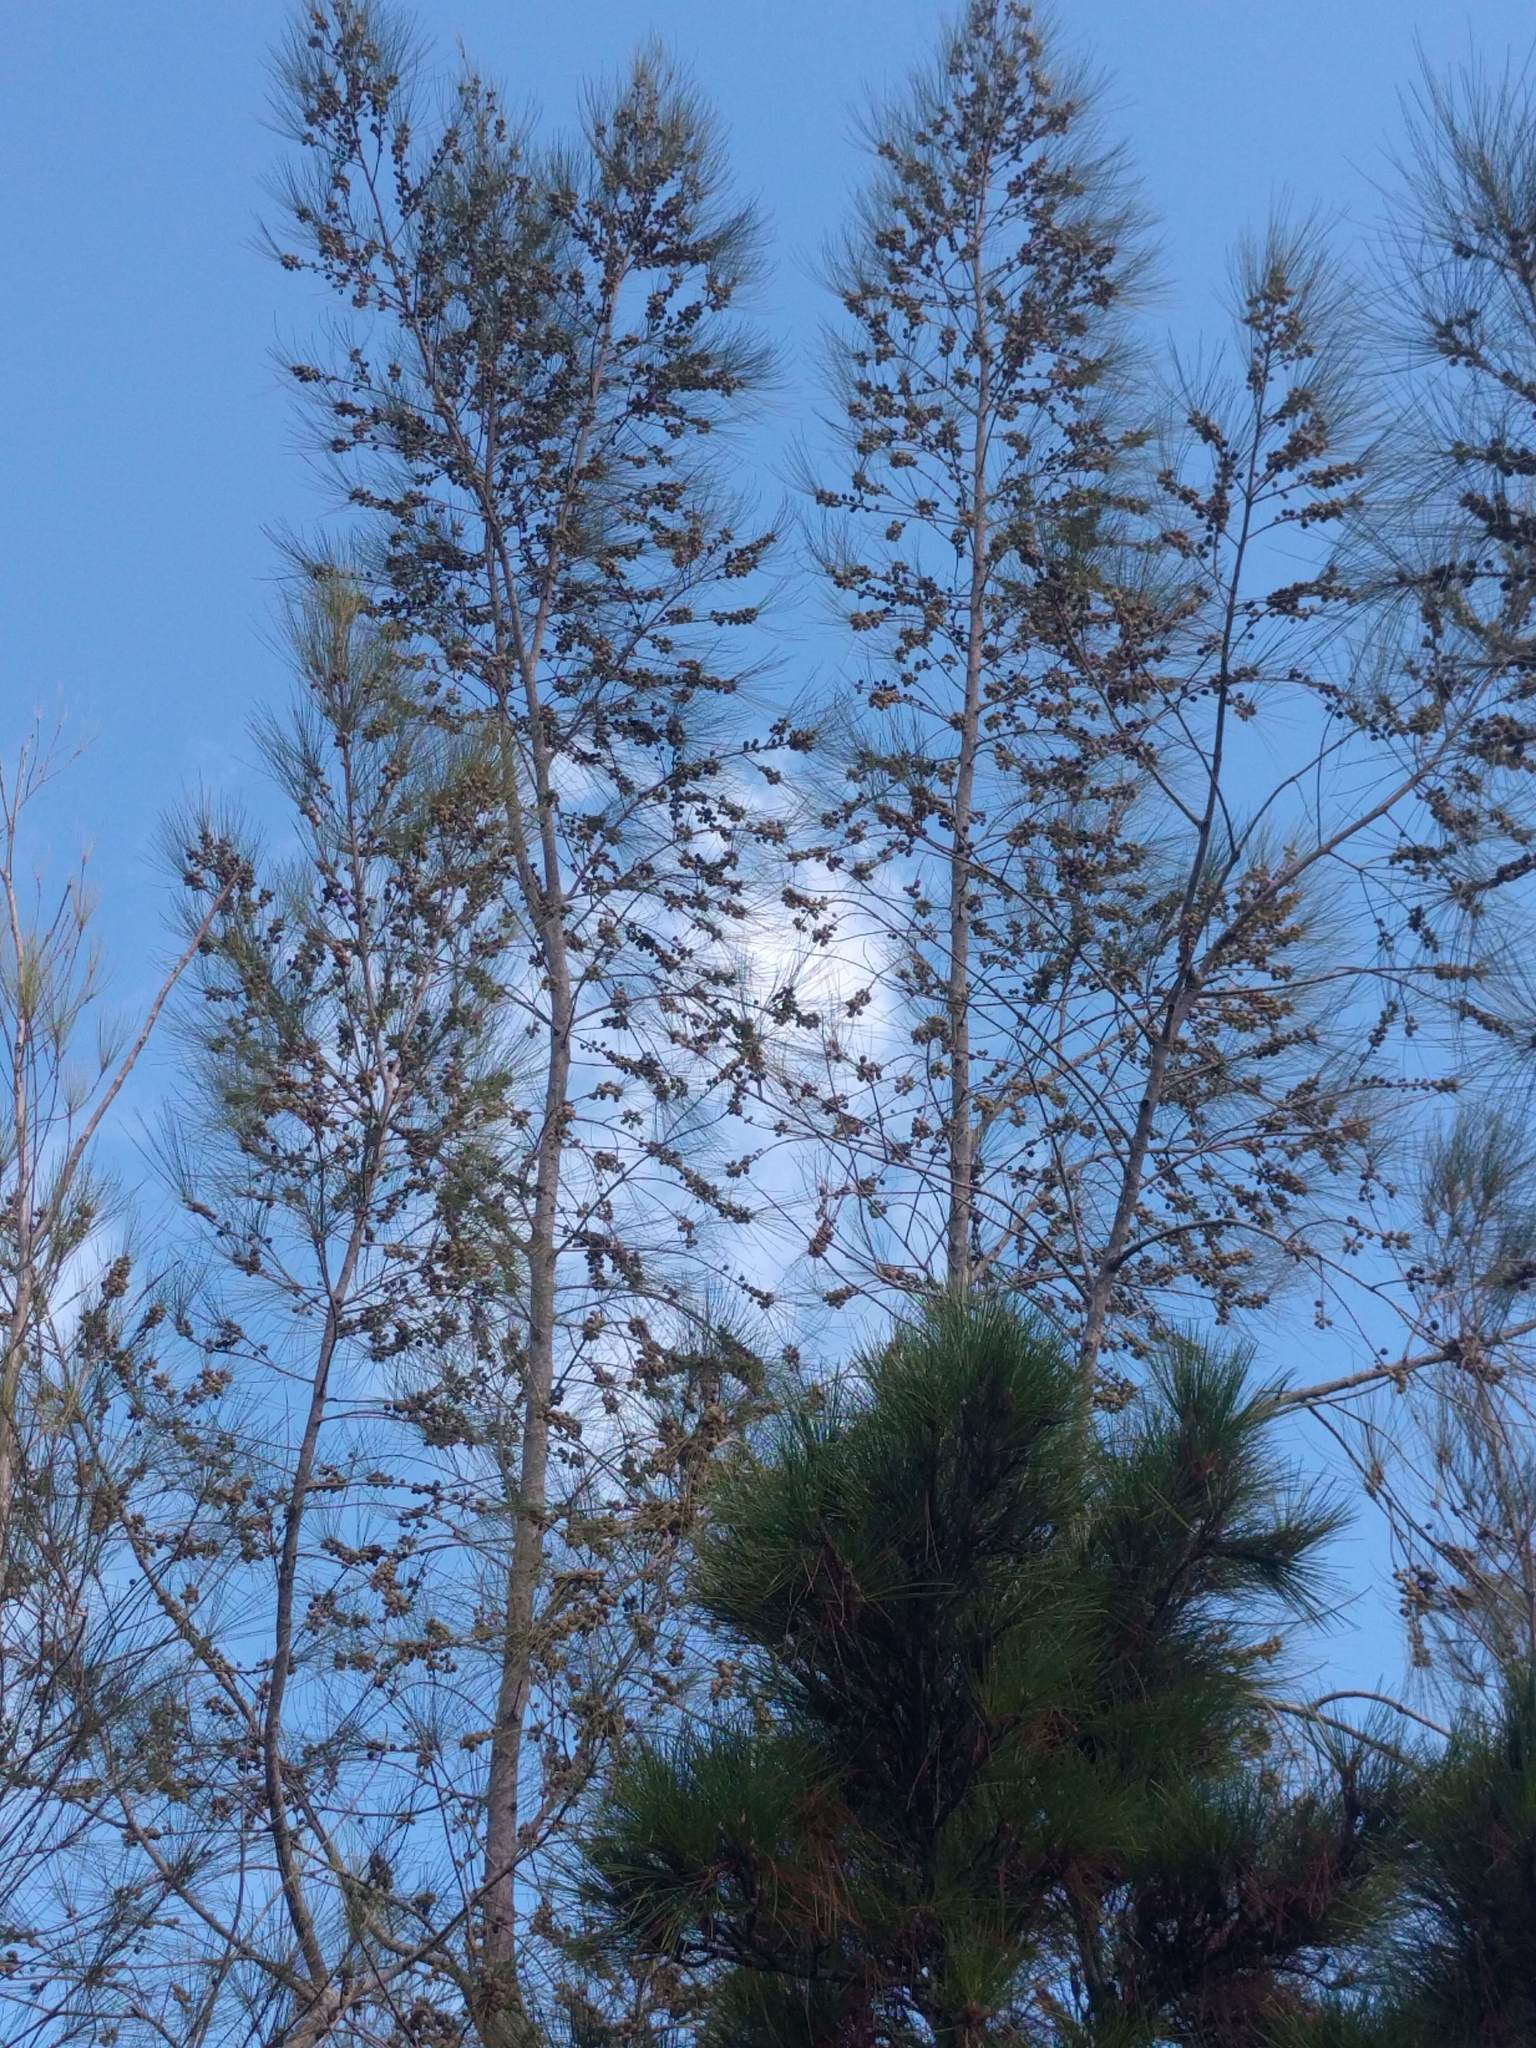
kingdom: Plantae
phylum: Tracheophyta
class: Magnoliopsida
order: Fagales
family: Casuarinaceae
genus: Casuarina
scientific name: Casuarina equisetifolia
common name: Beach sheoak
